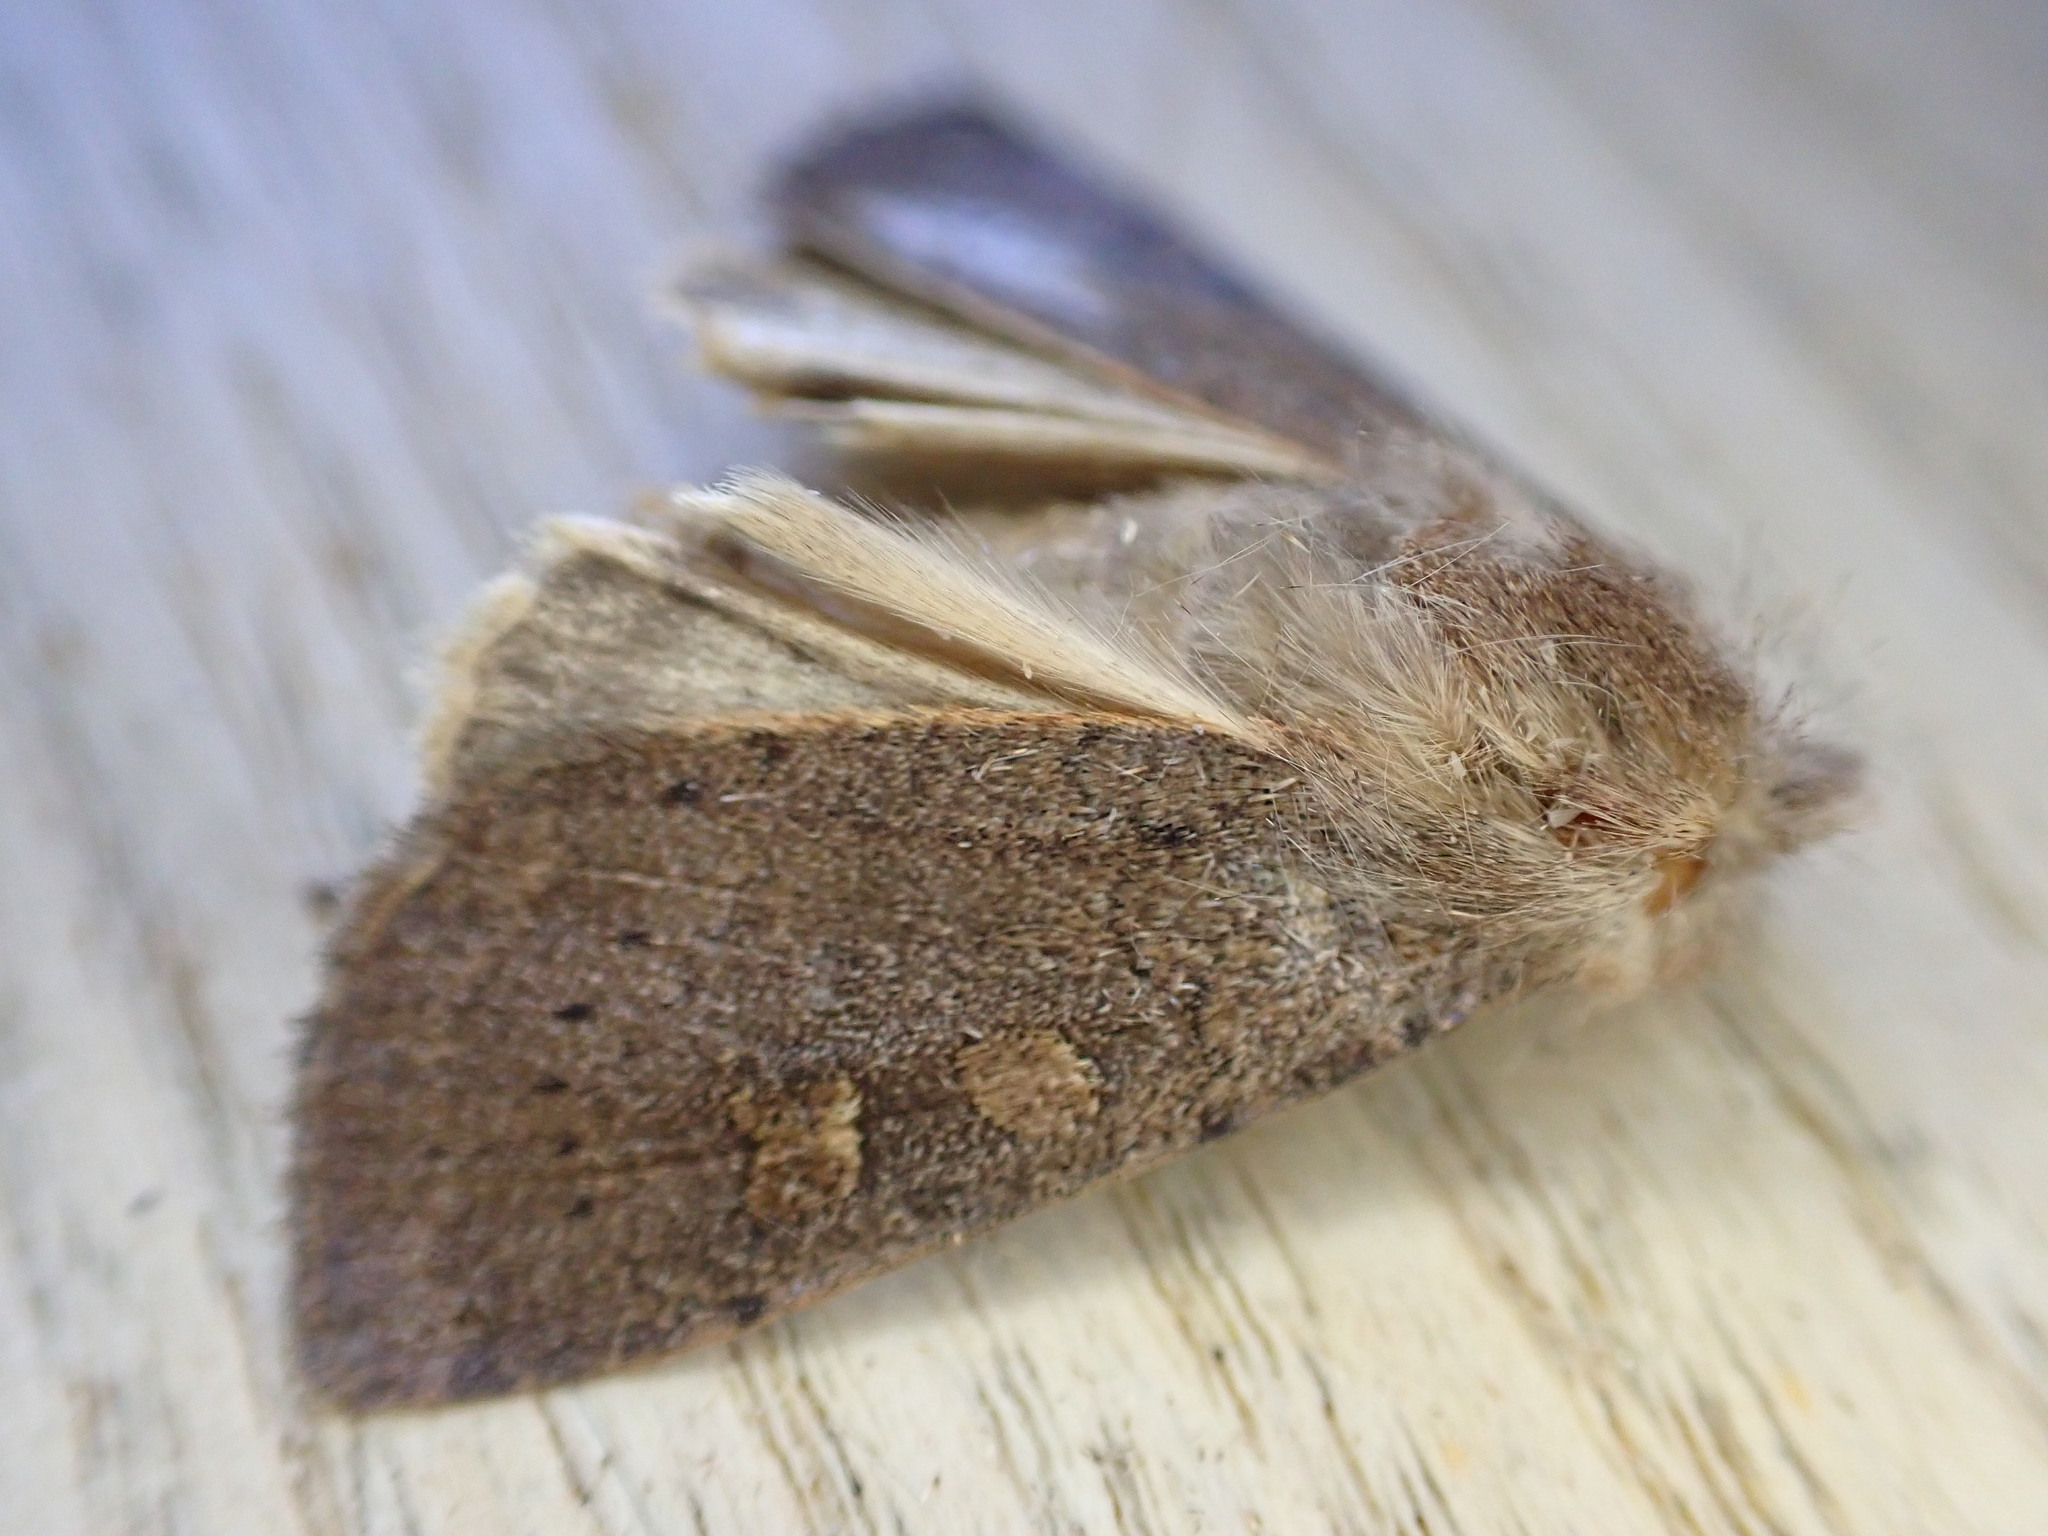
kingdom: Animalia
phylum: Arthropoda
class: Insecta
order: Lepidoptera
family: Noctuidae
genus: Xestia
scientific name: Xestia xanthographa
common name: Square-spot rustic
